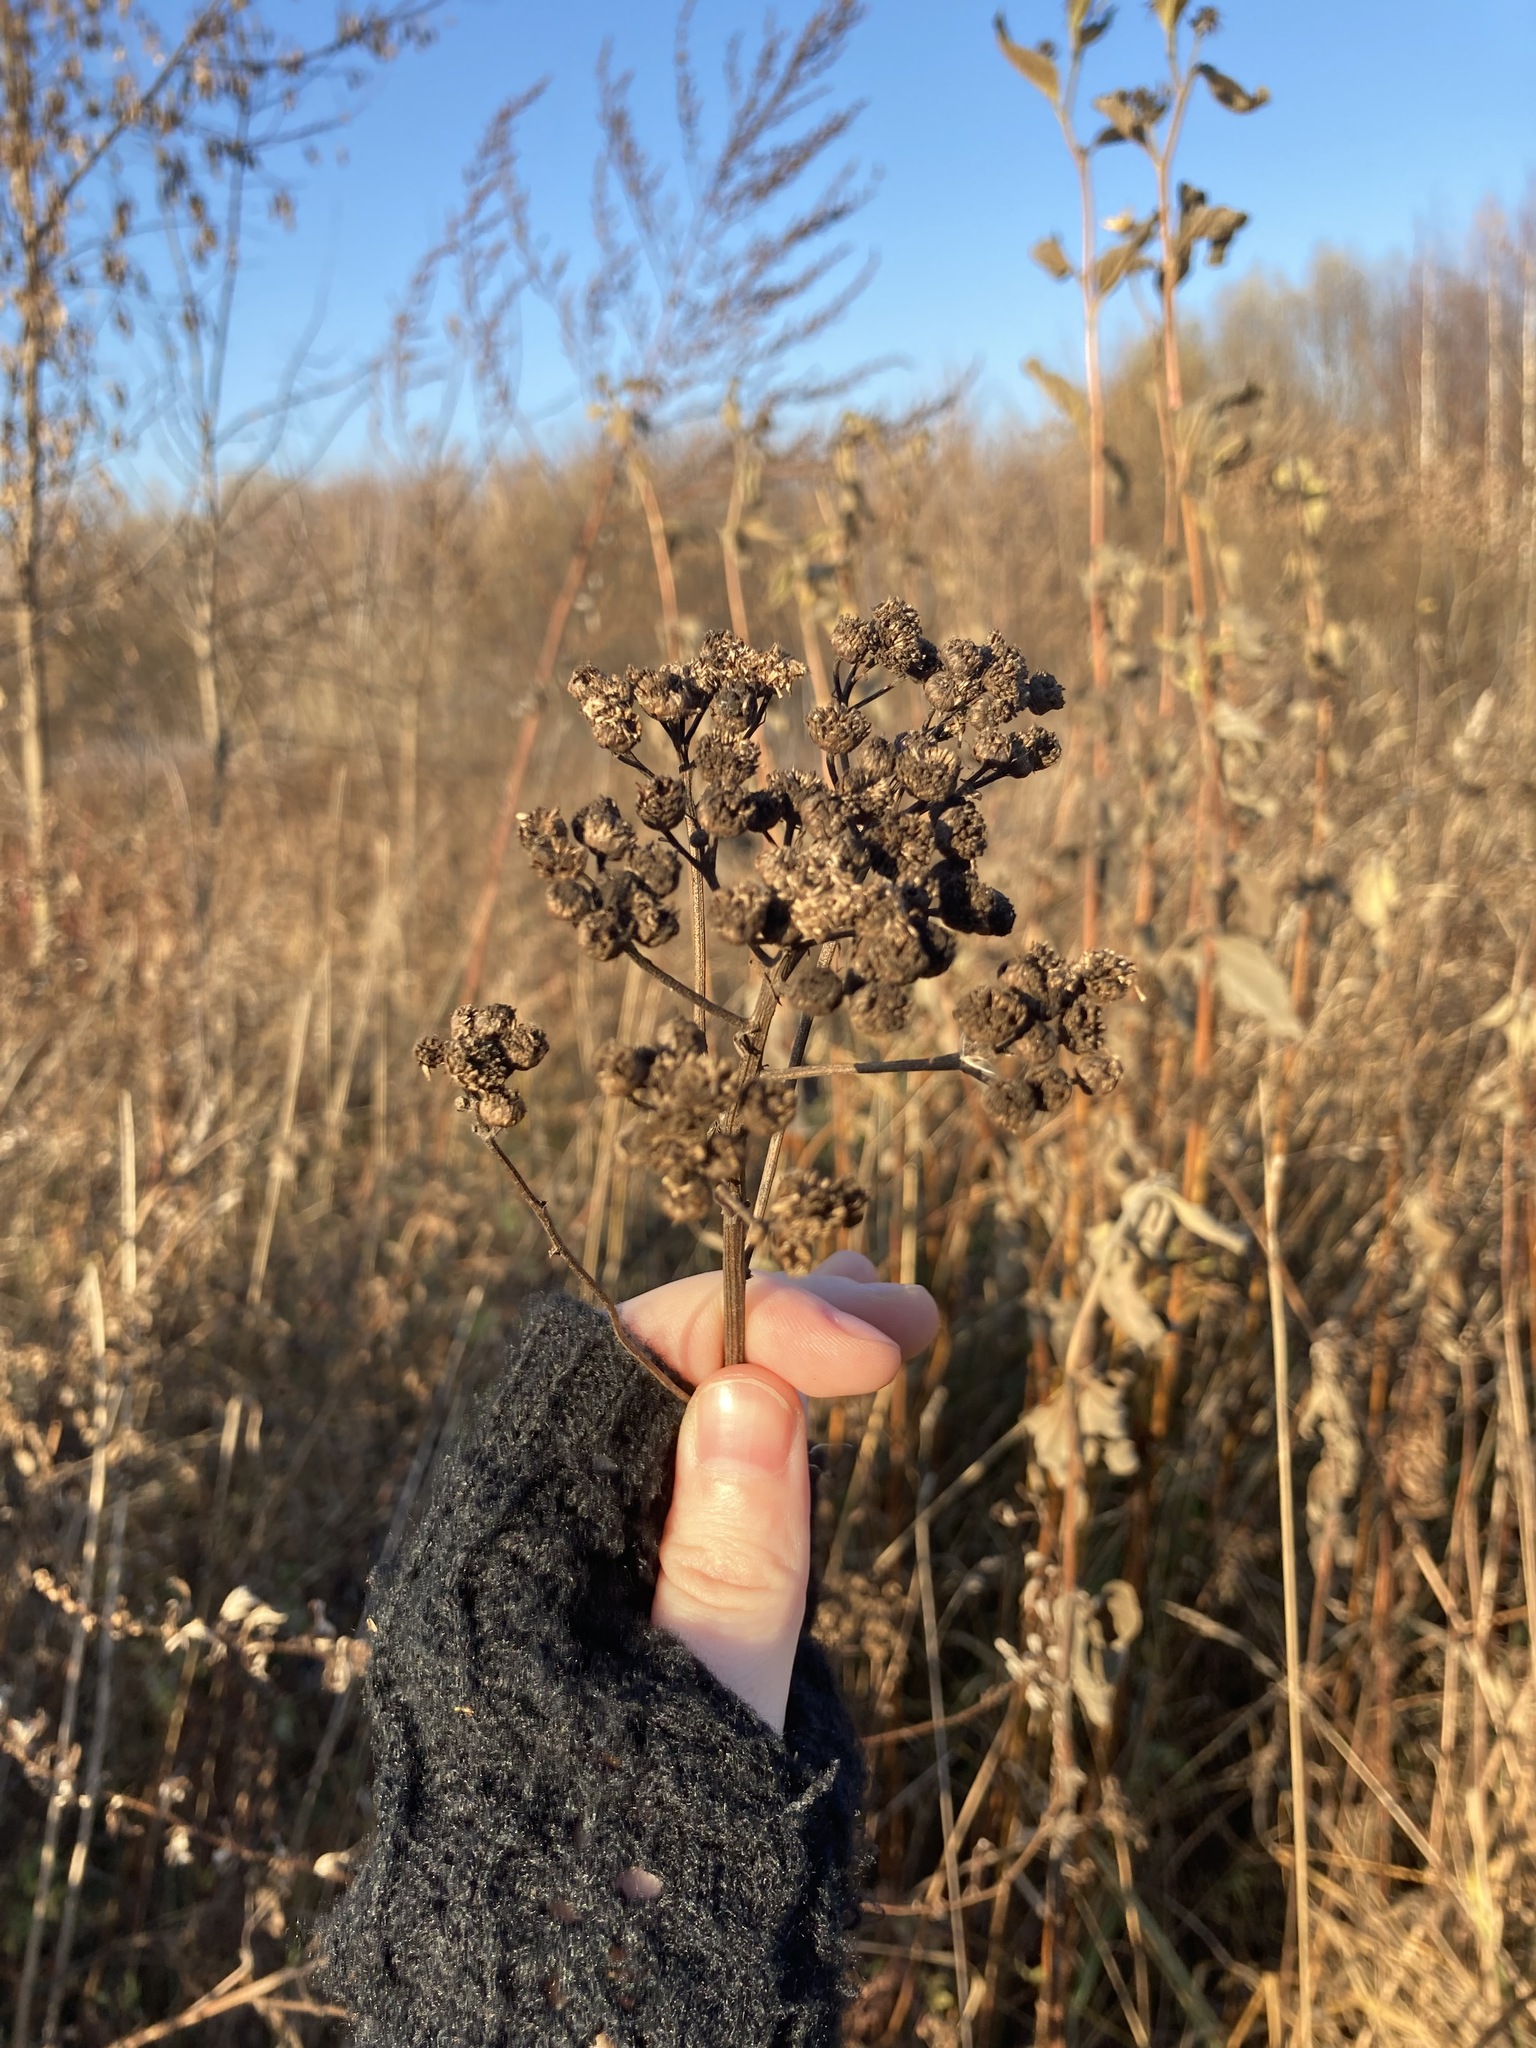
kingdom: Plantae
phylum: Tracheophyta
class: Magnoliopsida
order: Asterales
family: Asteraceae
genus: Tanacetum
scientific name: Tanacetum vulgare
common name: Common tansy
